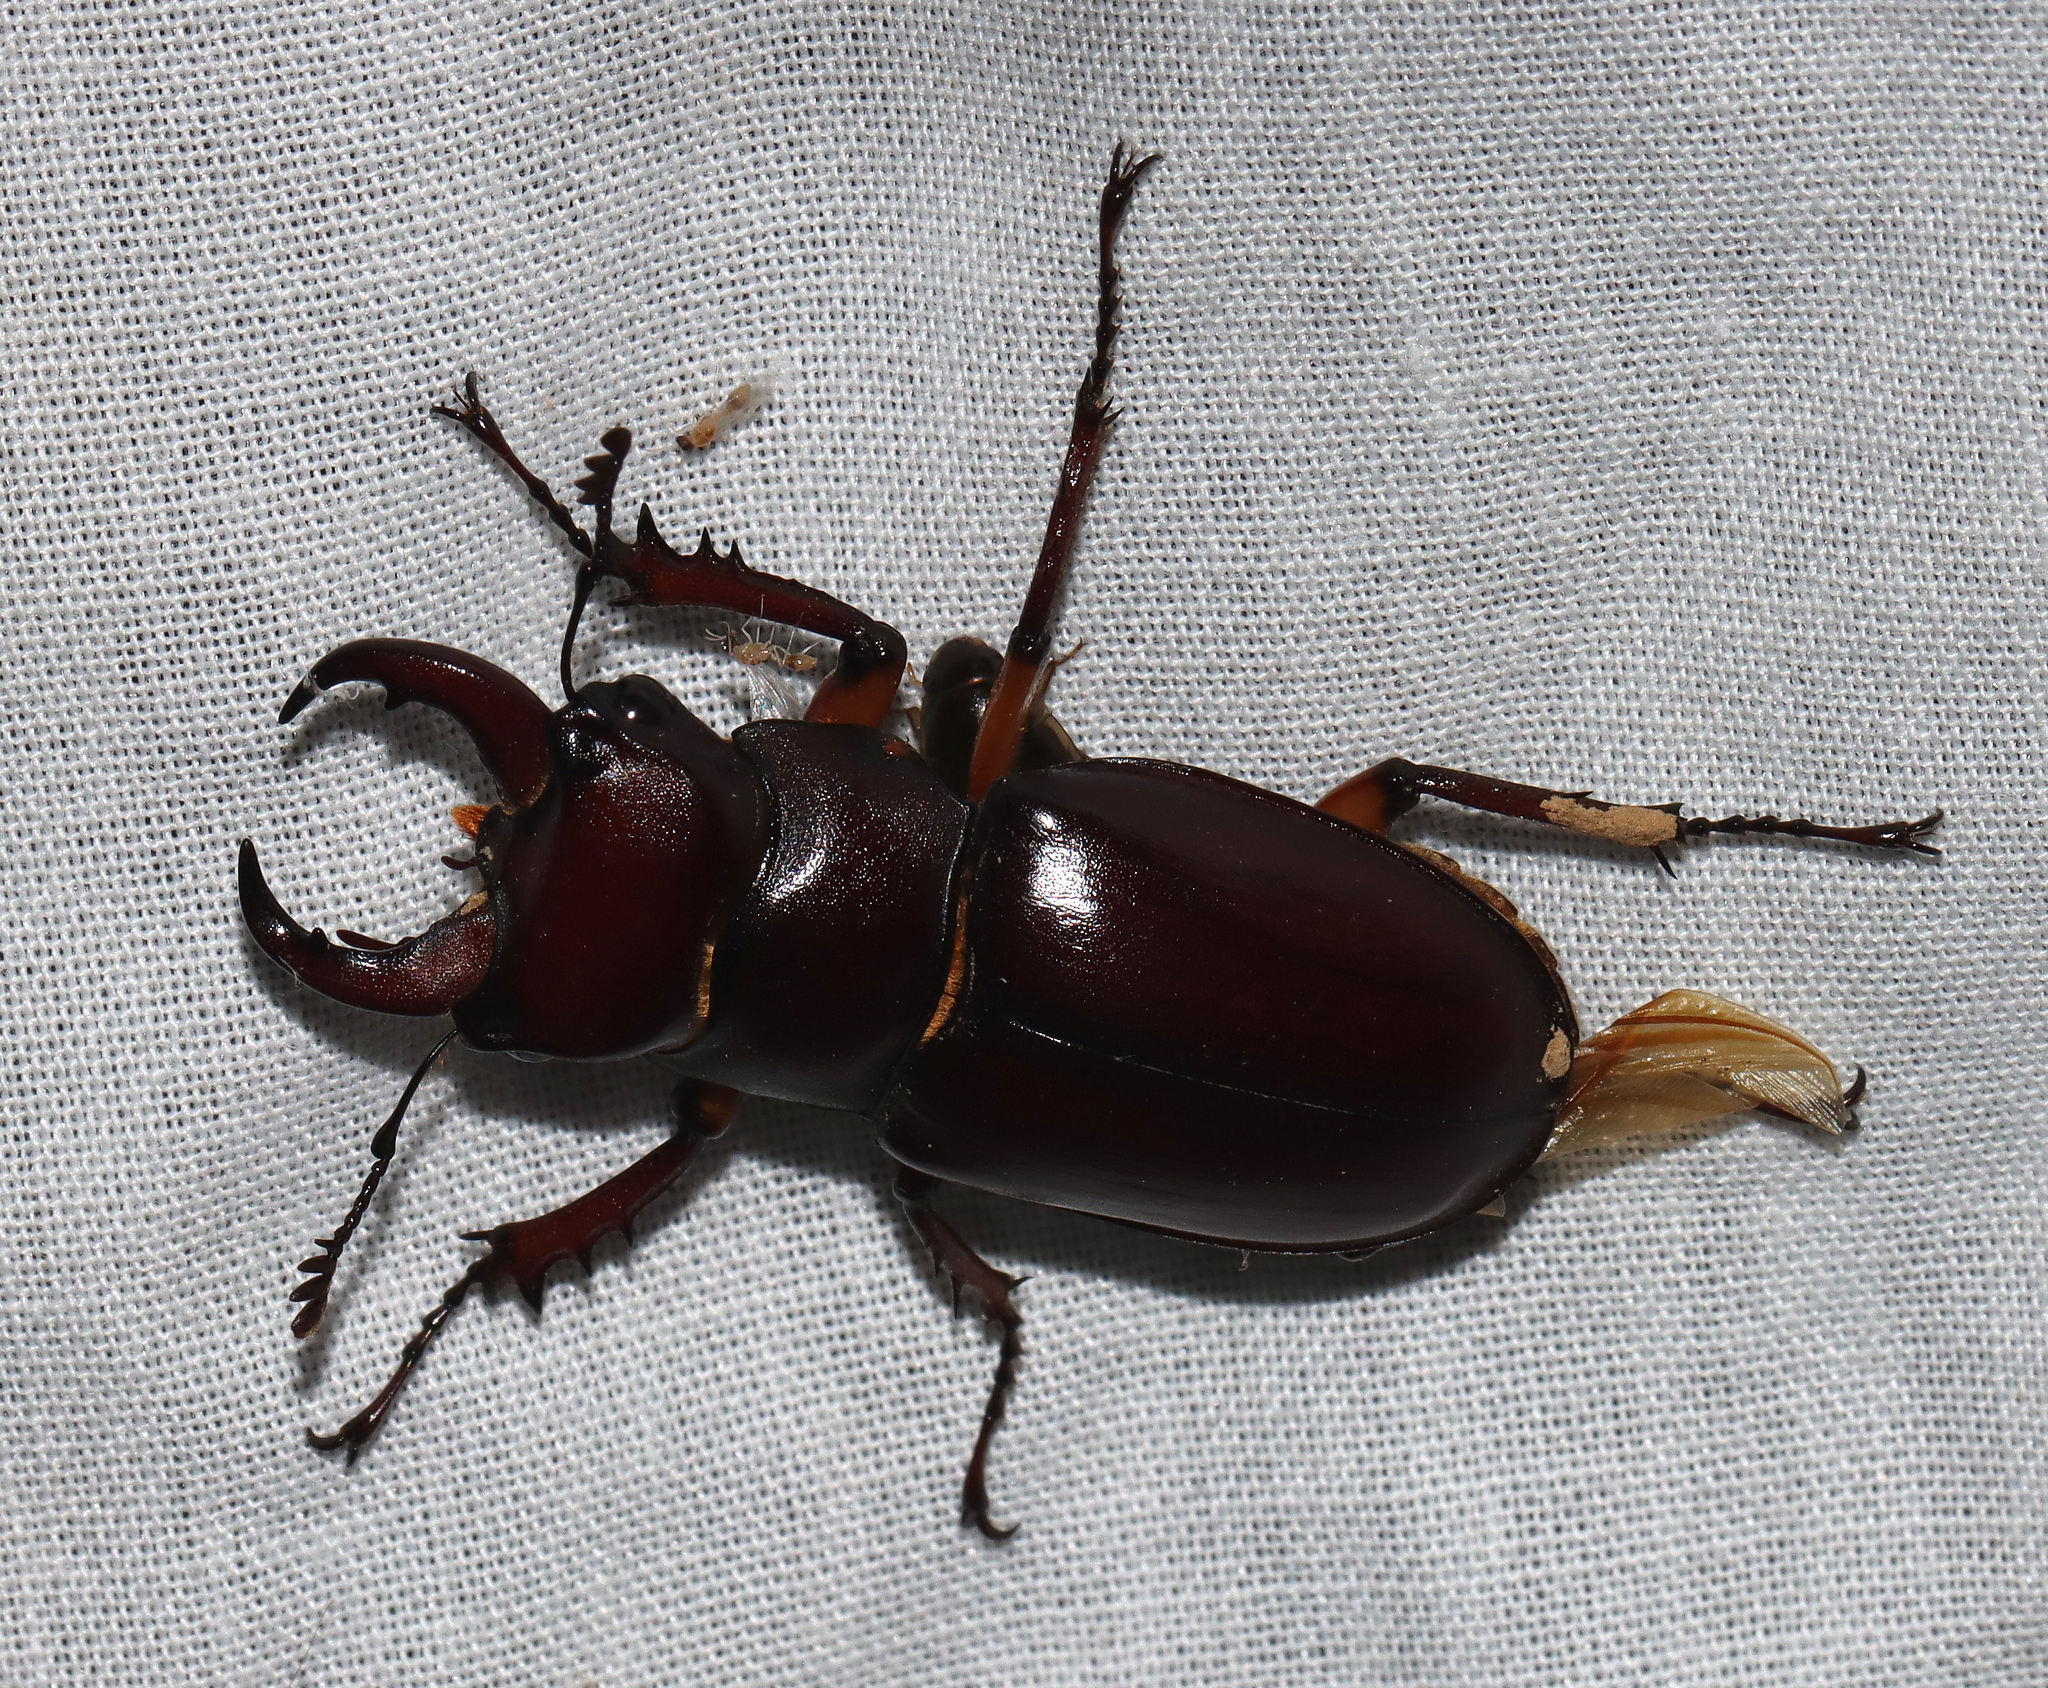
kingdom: Animalia
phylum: Arthropoda
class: Insecta
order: Coleoptera
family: Lucanidae
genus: Lucanus
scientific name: Lucanus capreolus
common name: Stag beetle
